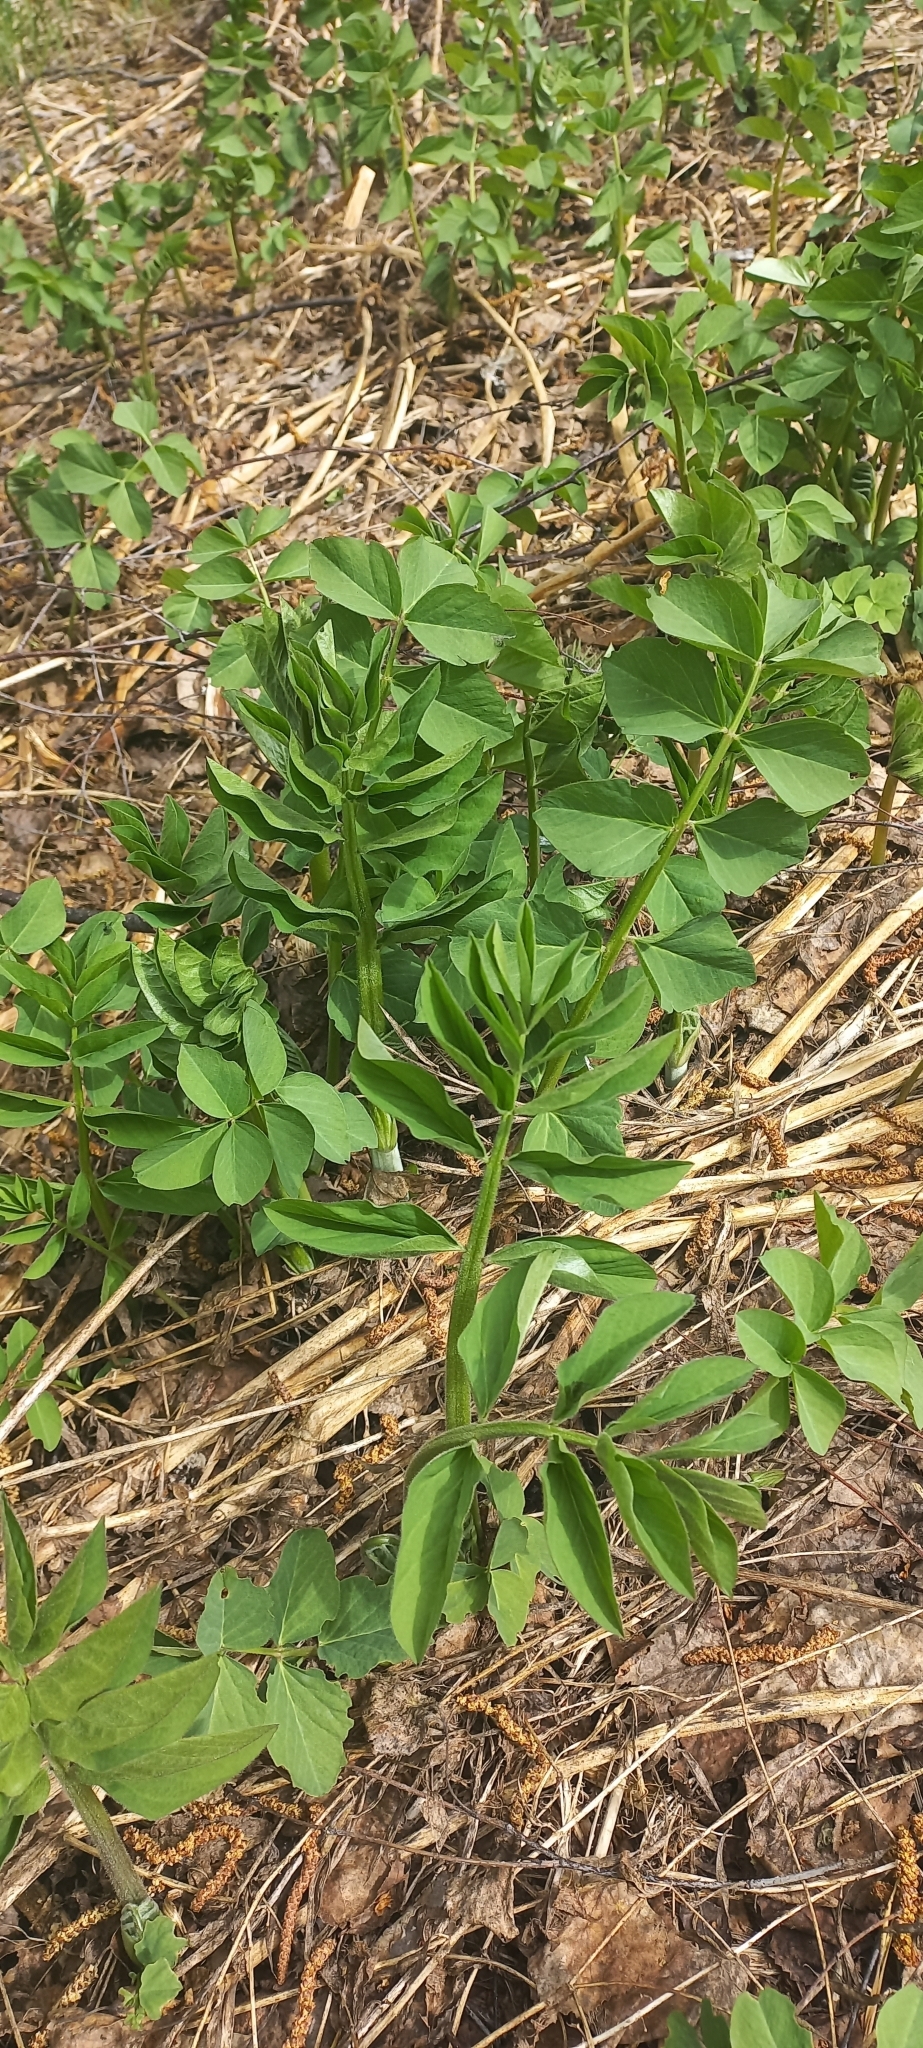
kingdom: Plantae
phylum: Tracheophyta
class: Magnoliopsida
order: Fabales
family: Fabaceae
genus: Galega
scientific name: Galega orientalis
